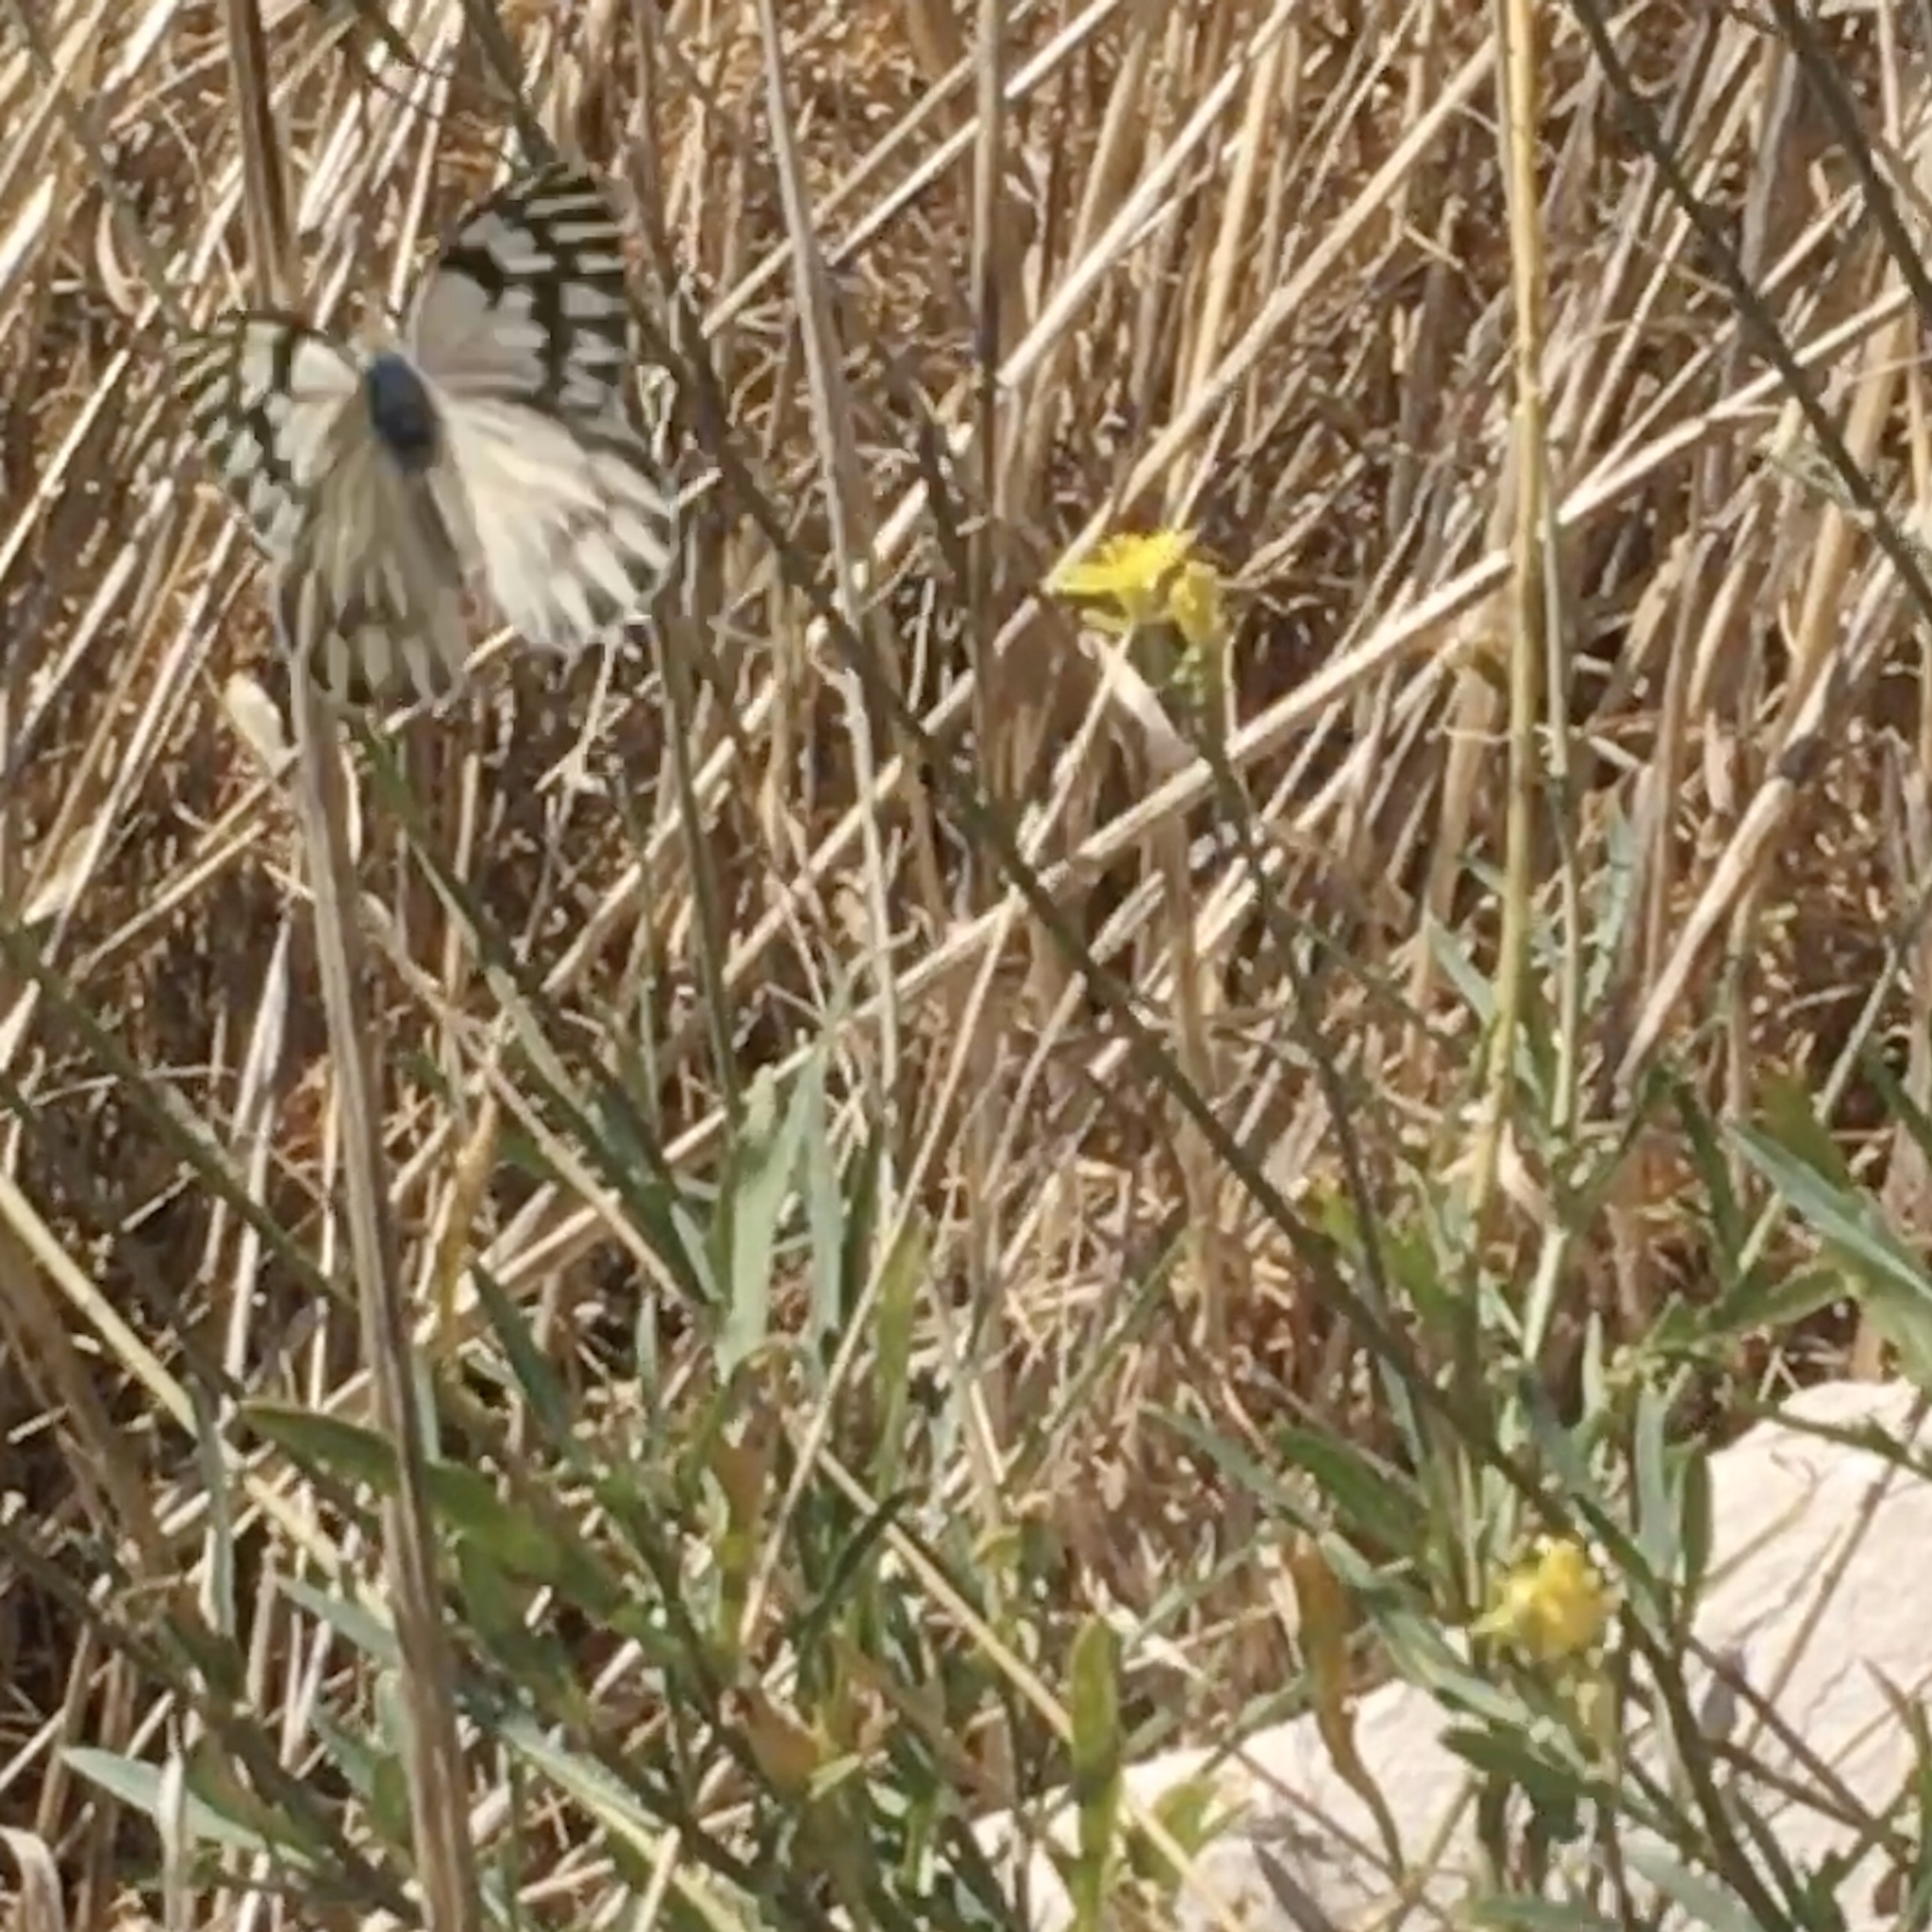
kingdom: Animalia
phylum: Arthropoda
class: Insecta
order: Lepidoptera
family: Pieridae
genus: Tatochila
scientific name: Tatochila mercedis
